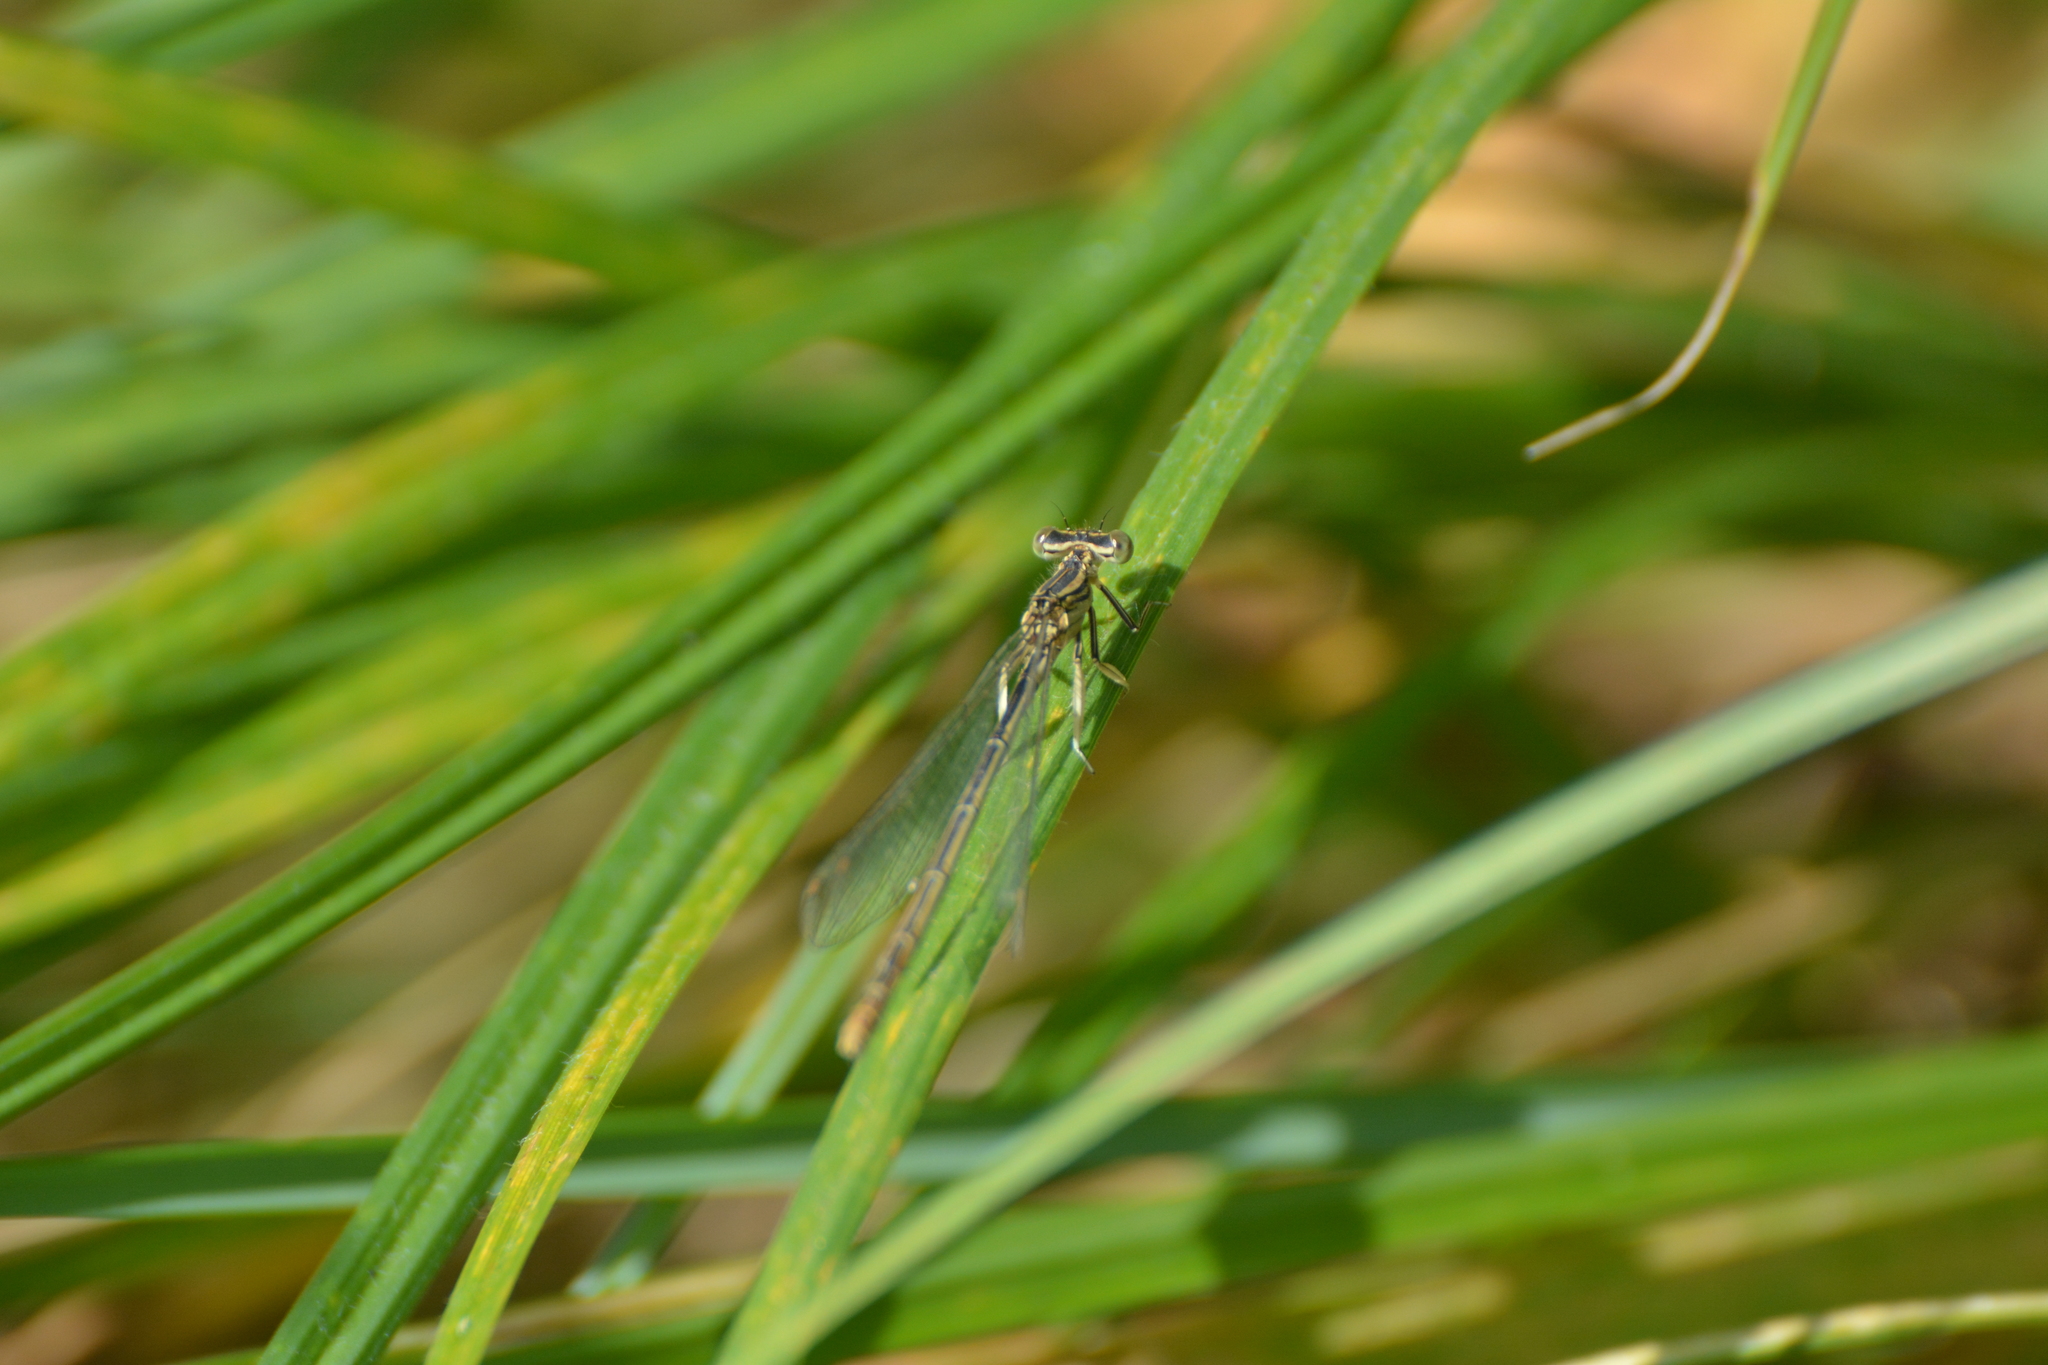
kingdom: Animalia
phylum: Arthropoda
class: Insecta
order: Odonata
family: Platycnemididae
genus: Platycnemis
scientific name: Platycnemis pennipes
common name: White-legged damselfly
